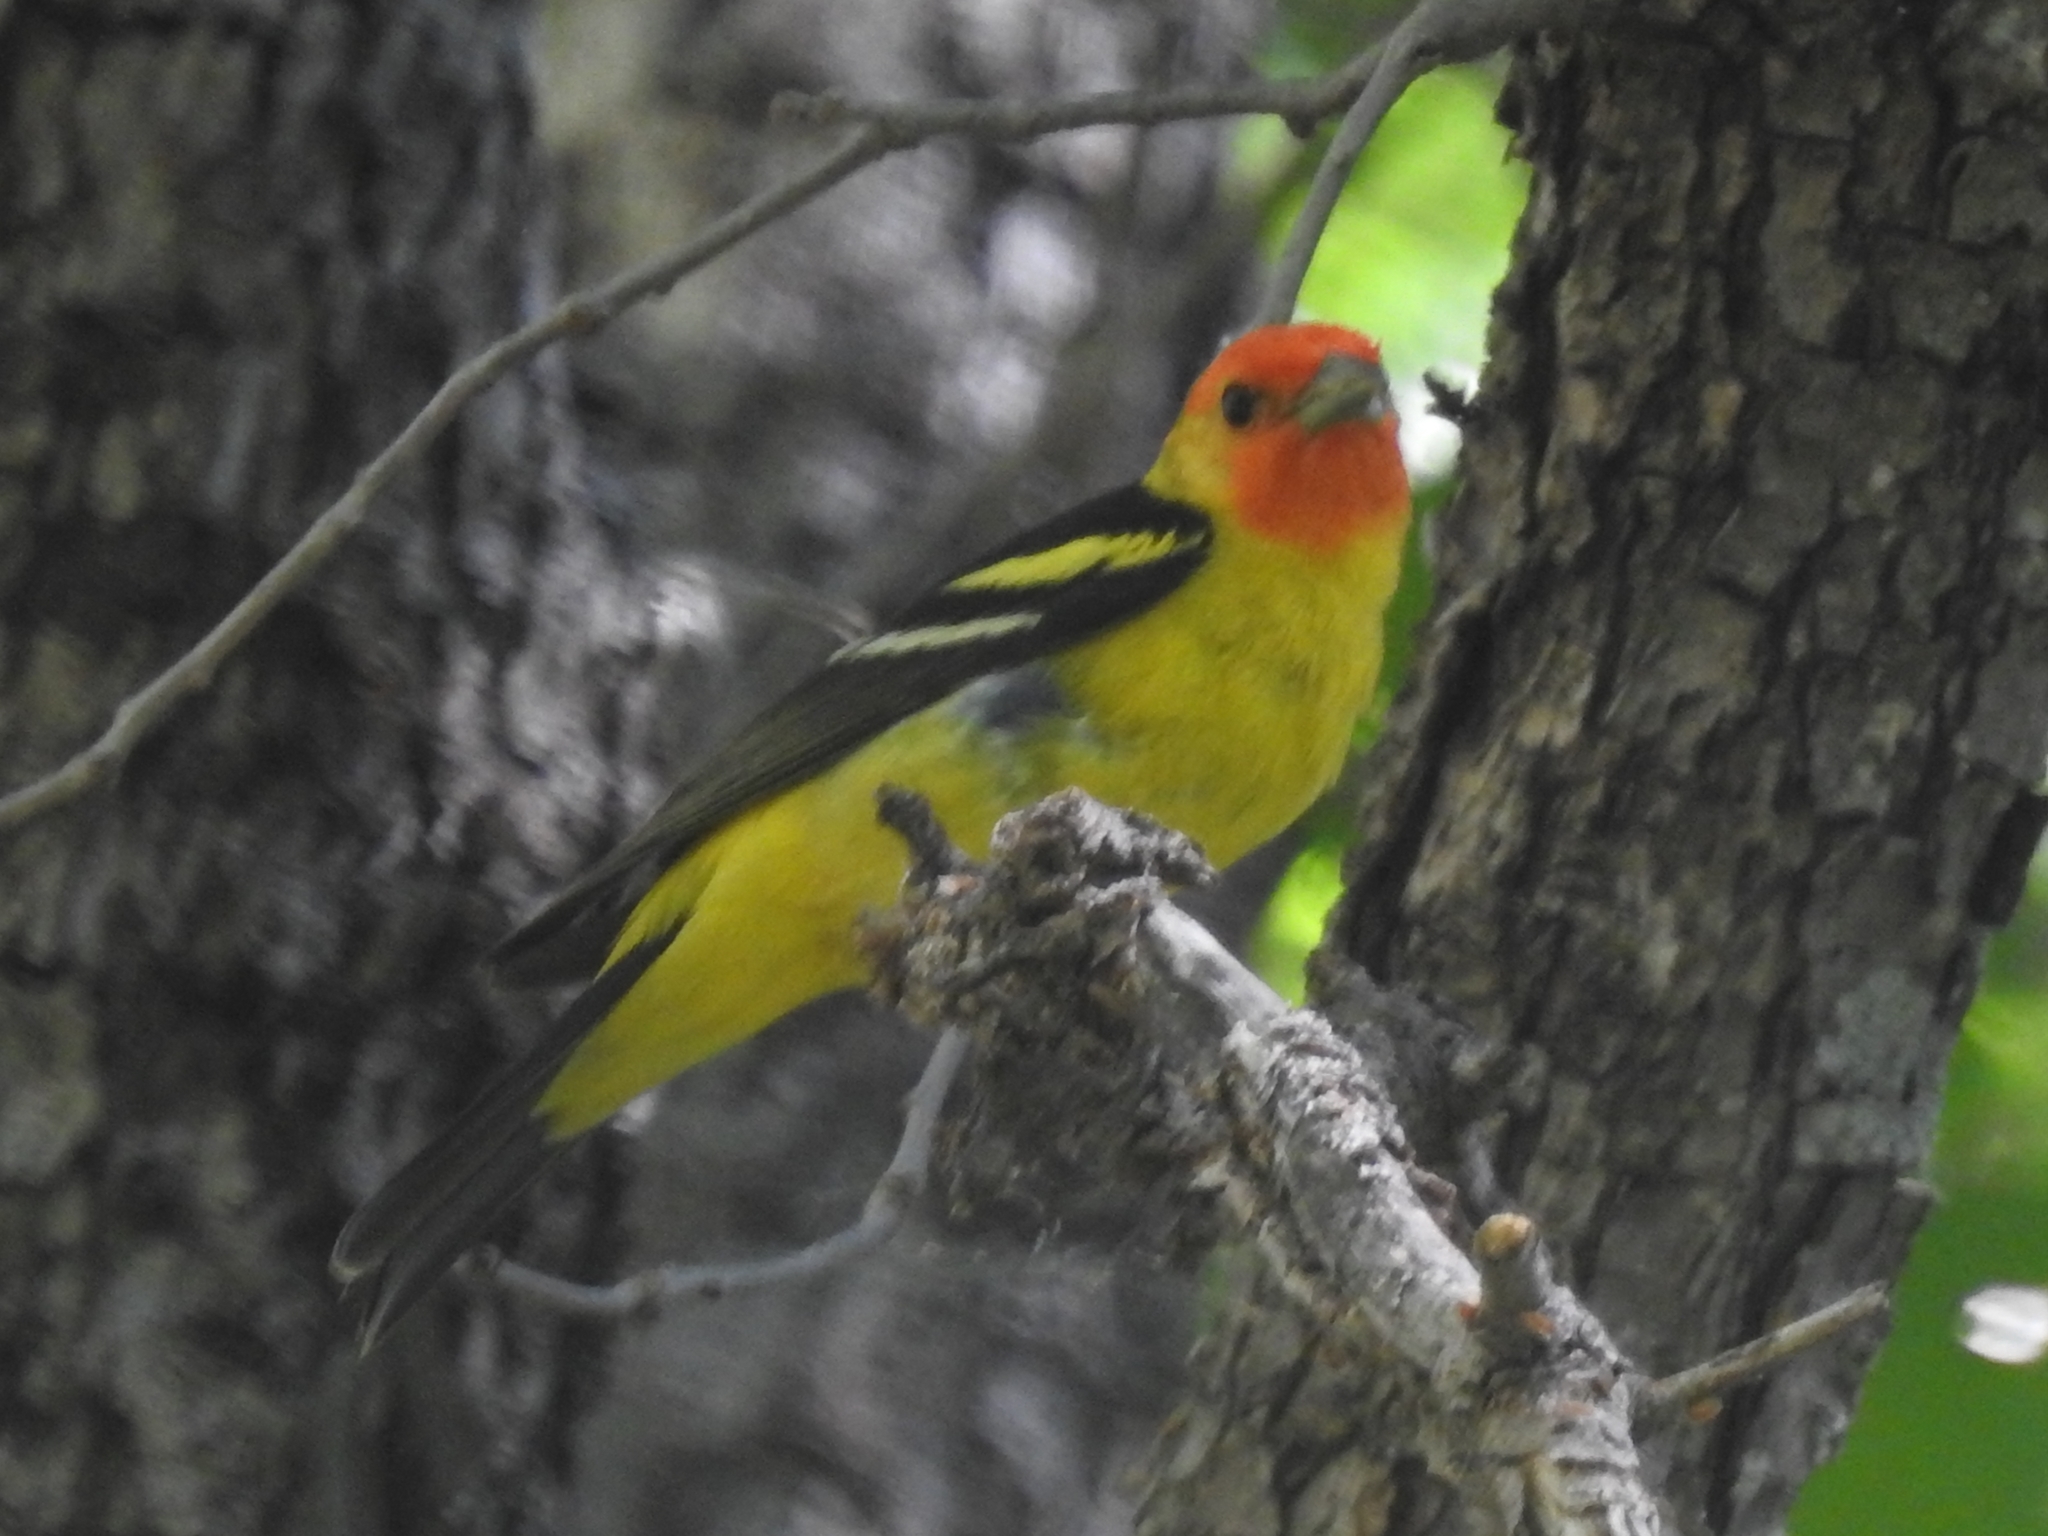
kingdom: Animalia
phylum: Chordata
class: Aves
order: Passeriformes
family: Cardinalidae
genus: Piranga
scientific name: Piranga ludoviciana
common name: Western tanager
